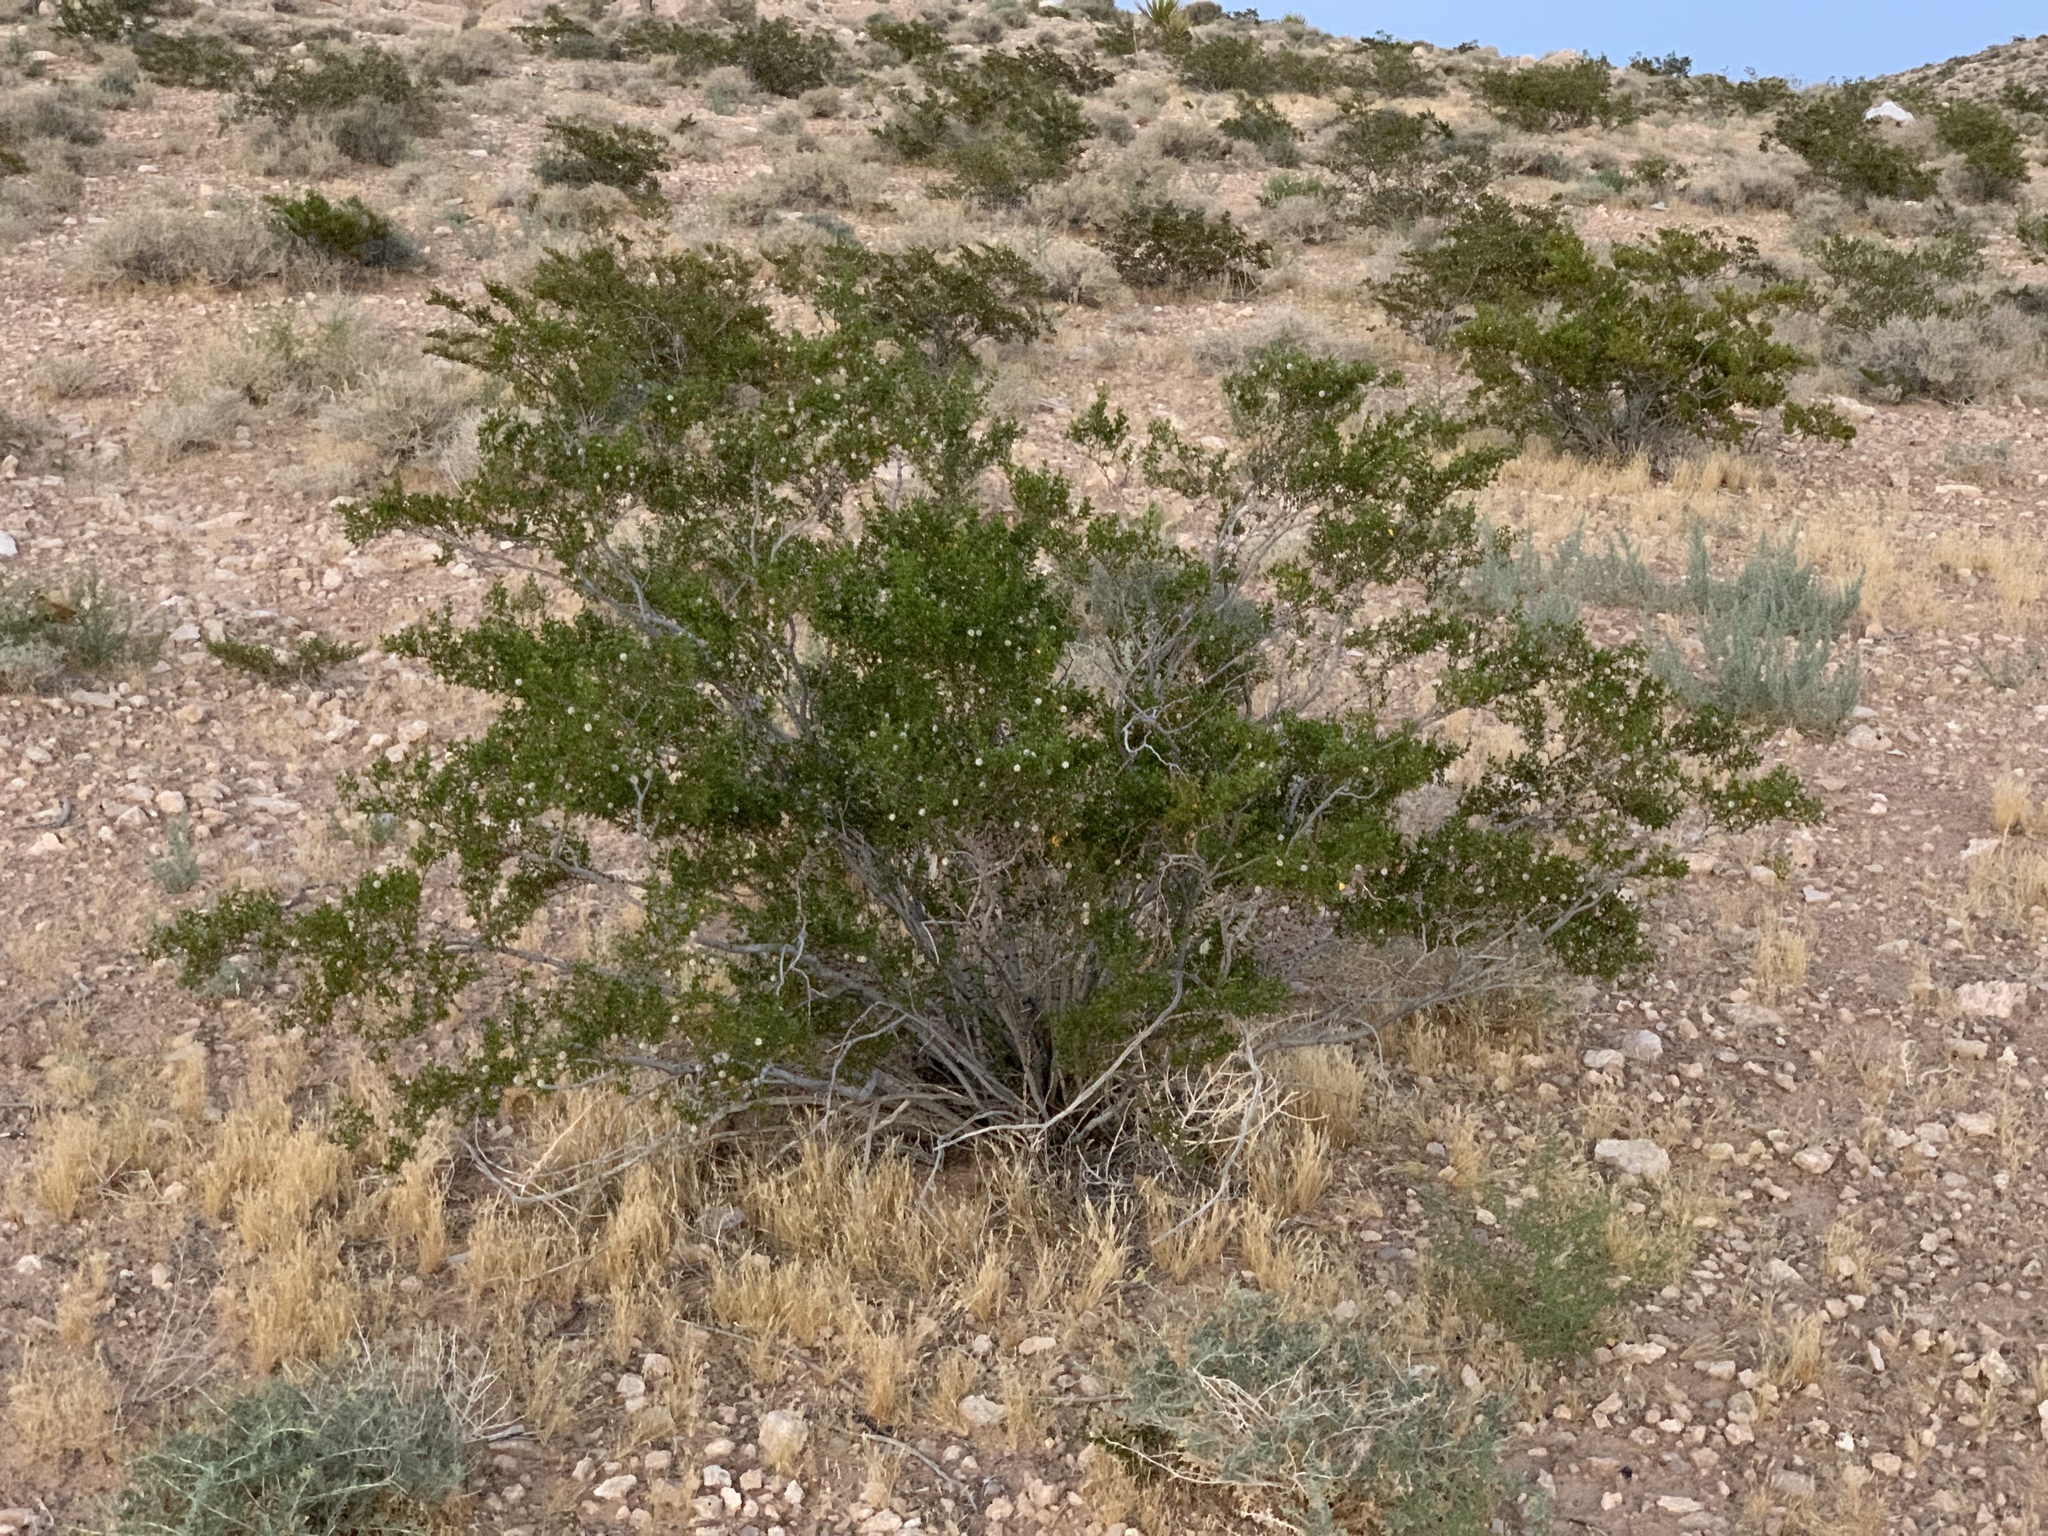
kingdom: Plantae
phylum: Tracheophyta
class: Magnoliopsida
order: Zygophyllales
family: Zygophyllaceae
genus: Larrea
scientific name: Larrea tridentata
